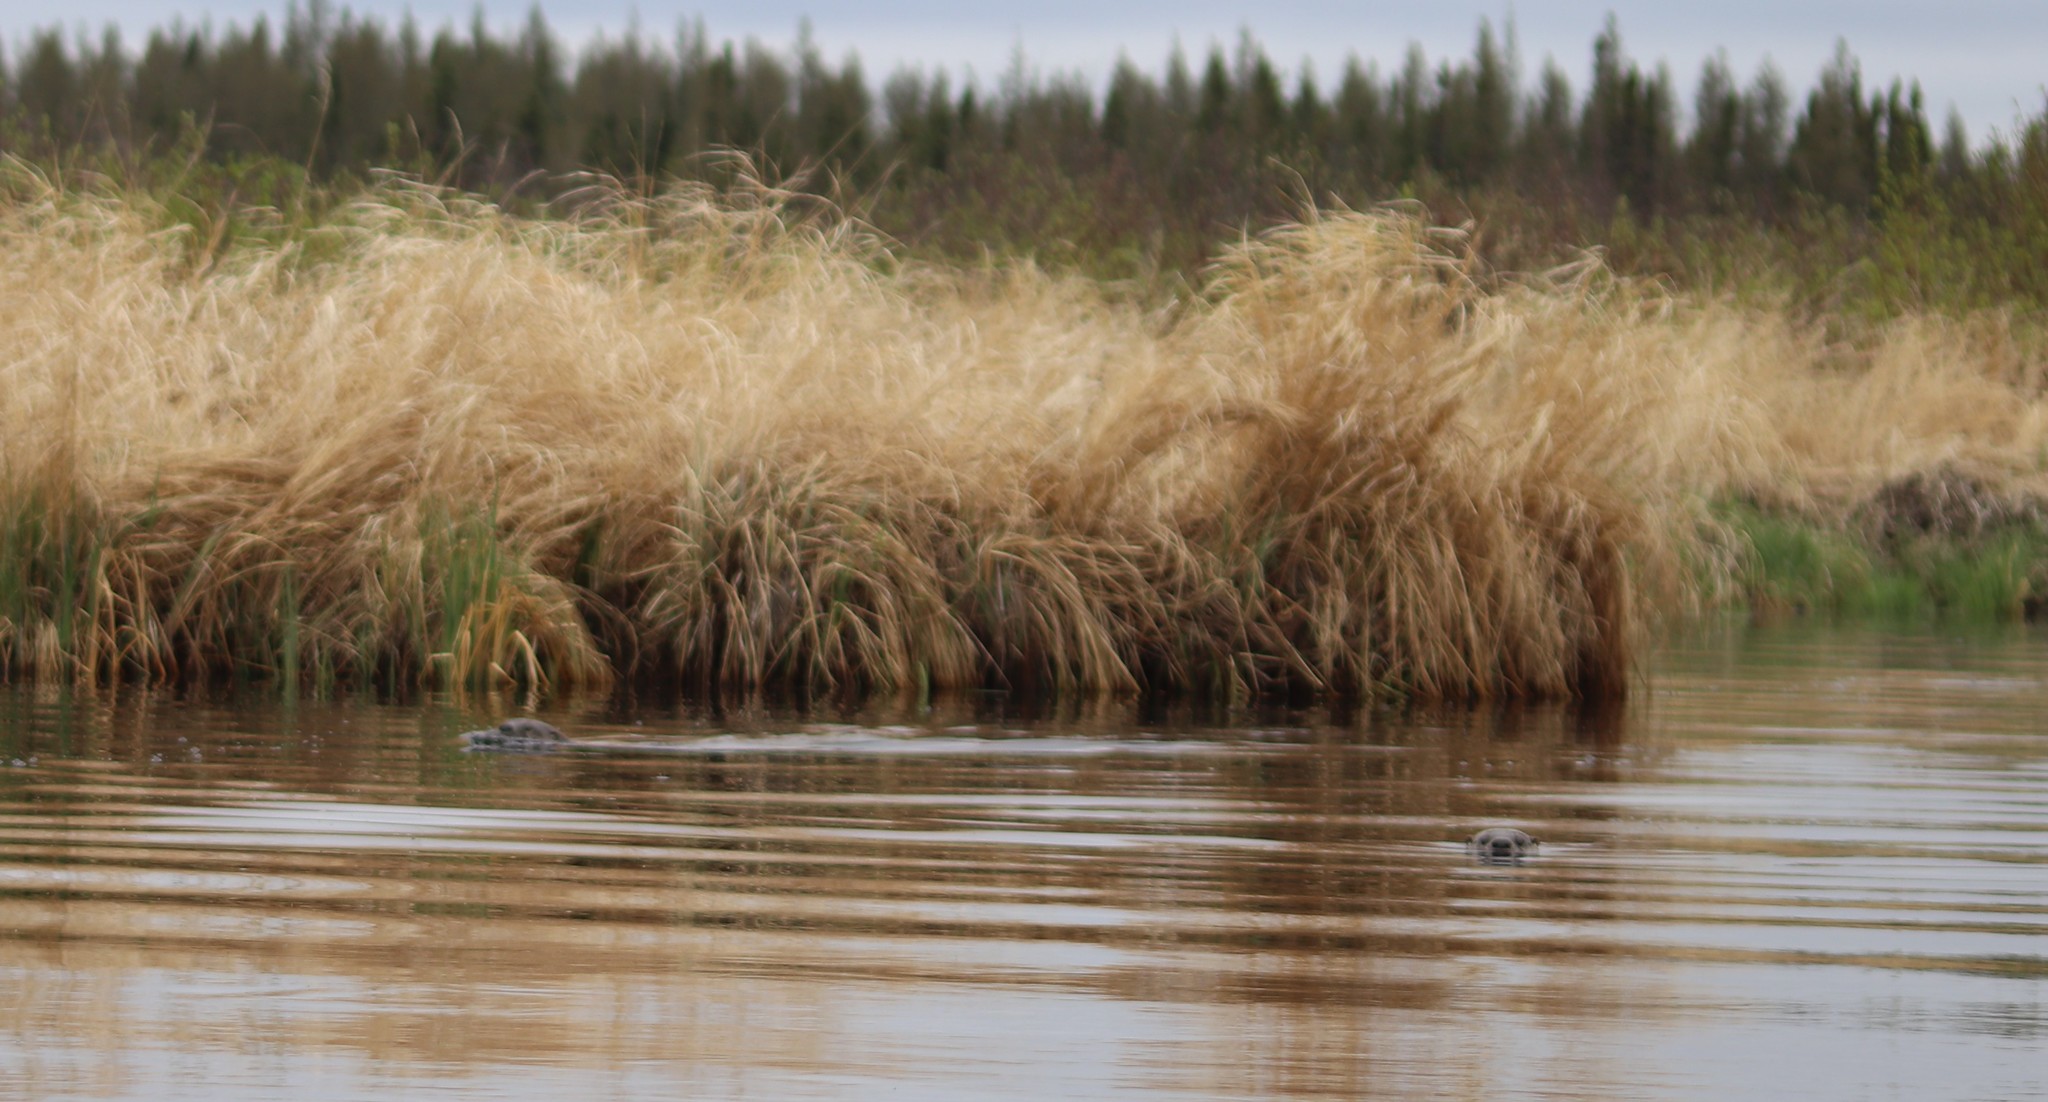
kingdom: Animalia
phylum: Chordata
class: Mammalia
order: Carnivora
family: Mustelidae
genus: Lontra
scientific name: Lontra canadensis
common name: North american river otter
